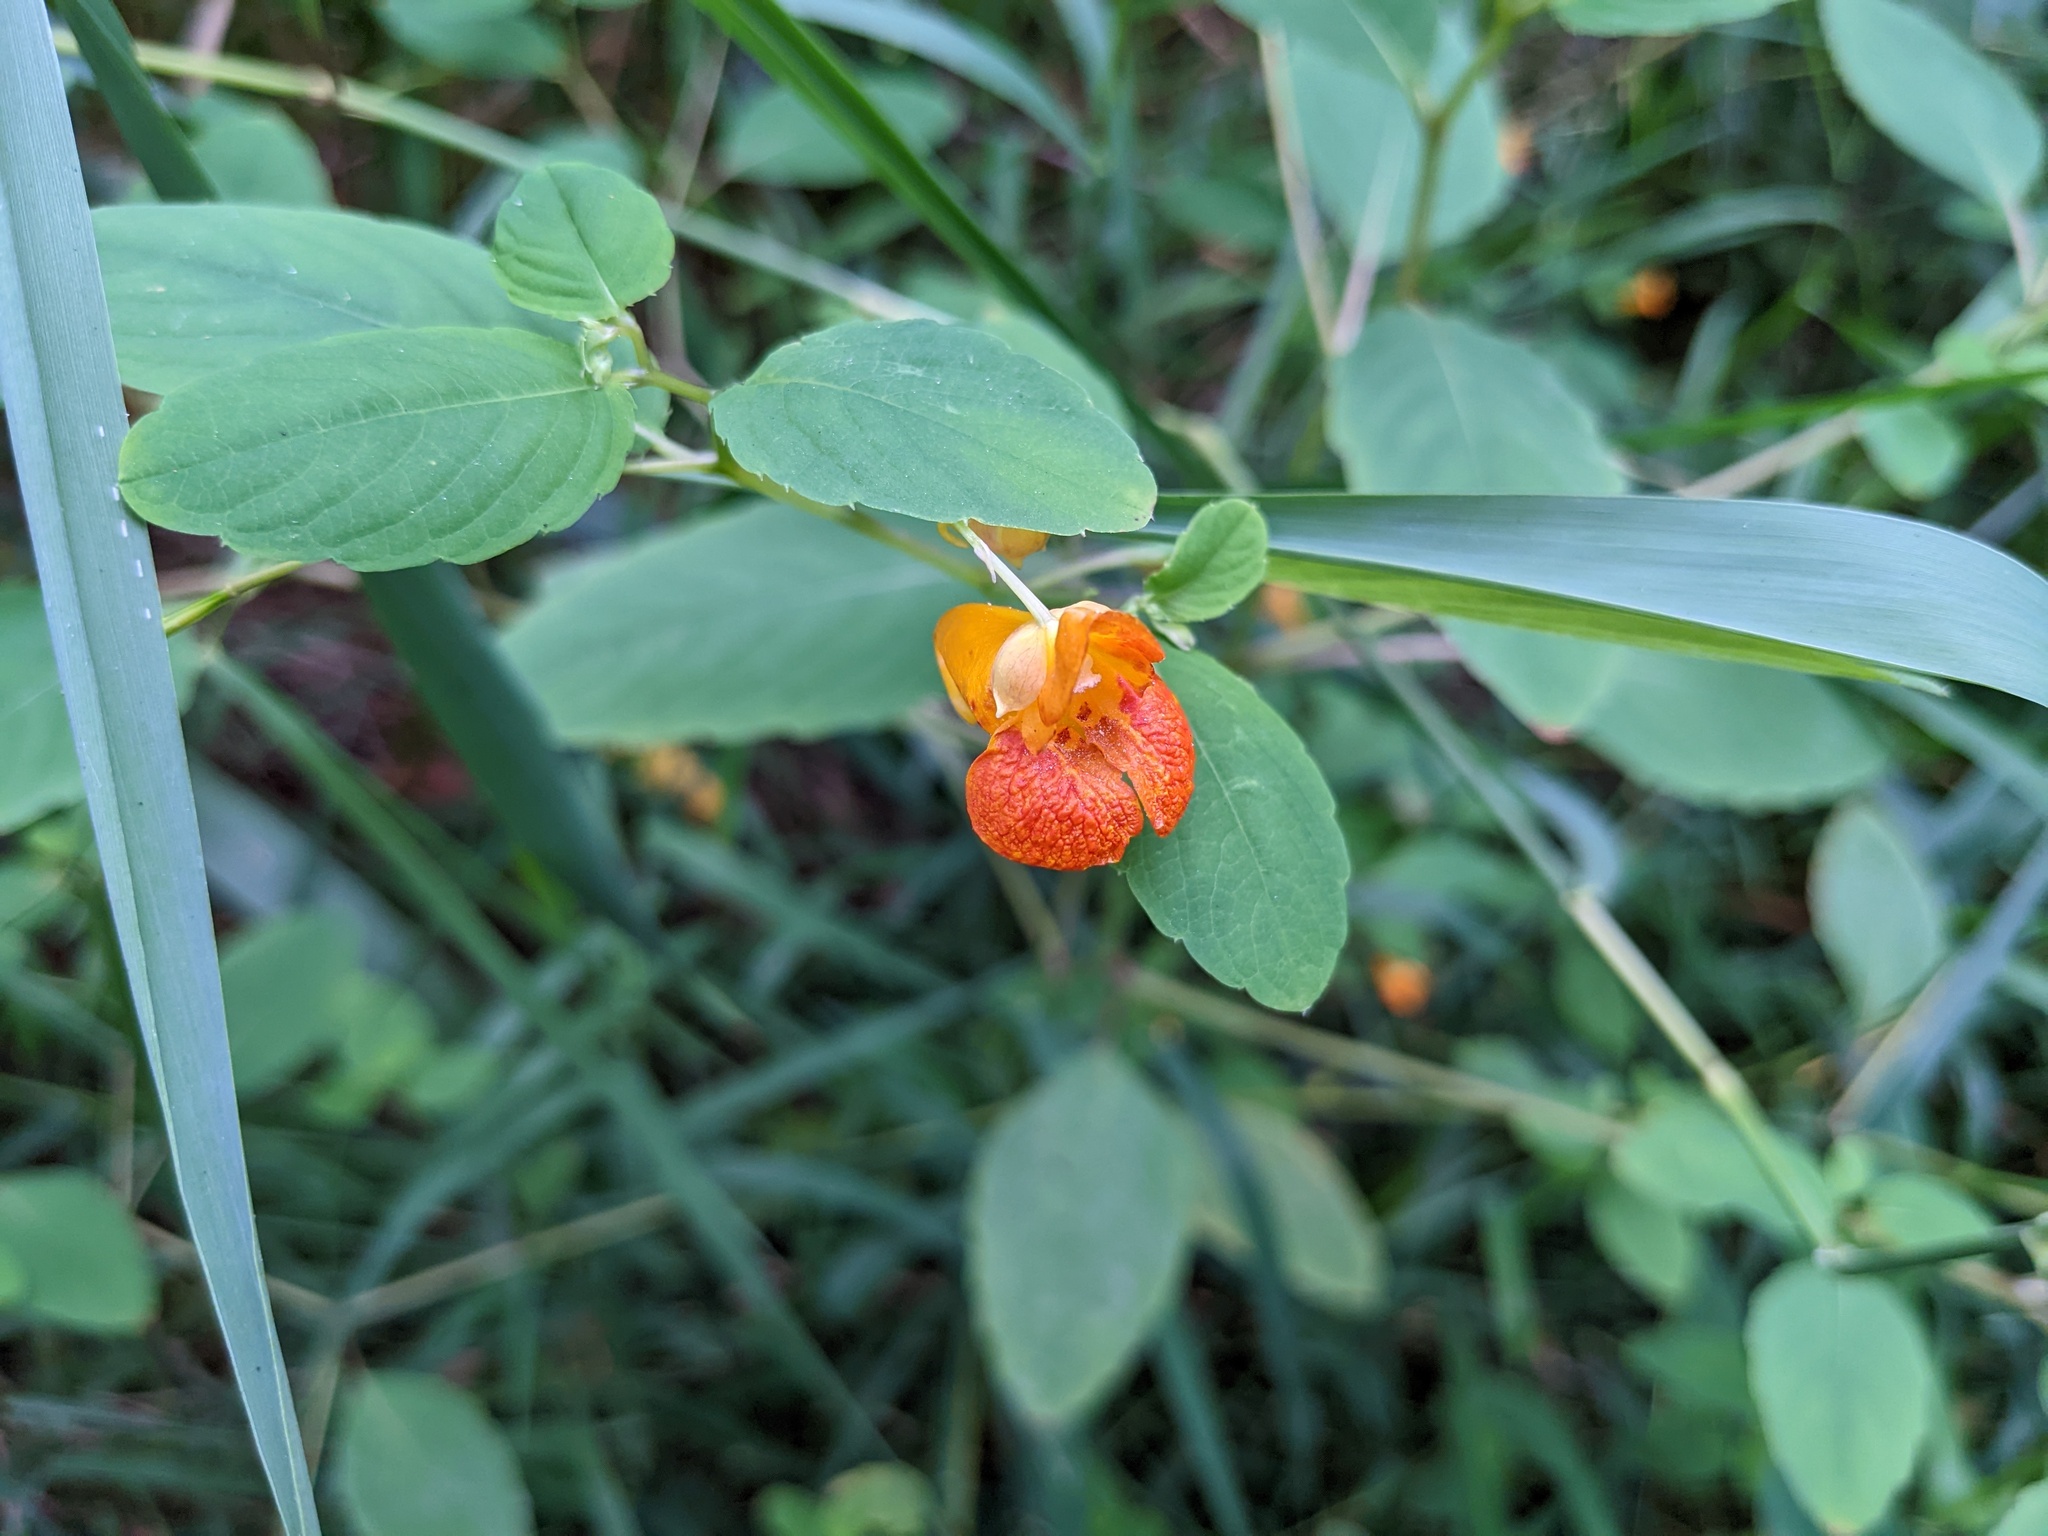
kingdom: Plantae
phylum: Tracheophyta
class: Magnoliopsida
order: Ericales
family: Balsaminaceae
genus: Impatiens
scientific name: Impatiens capensis
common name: Orange balsam
